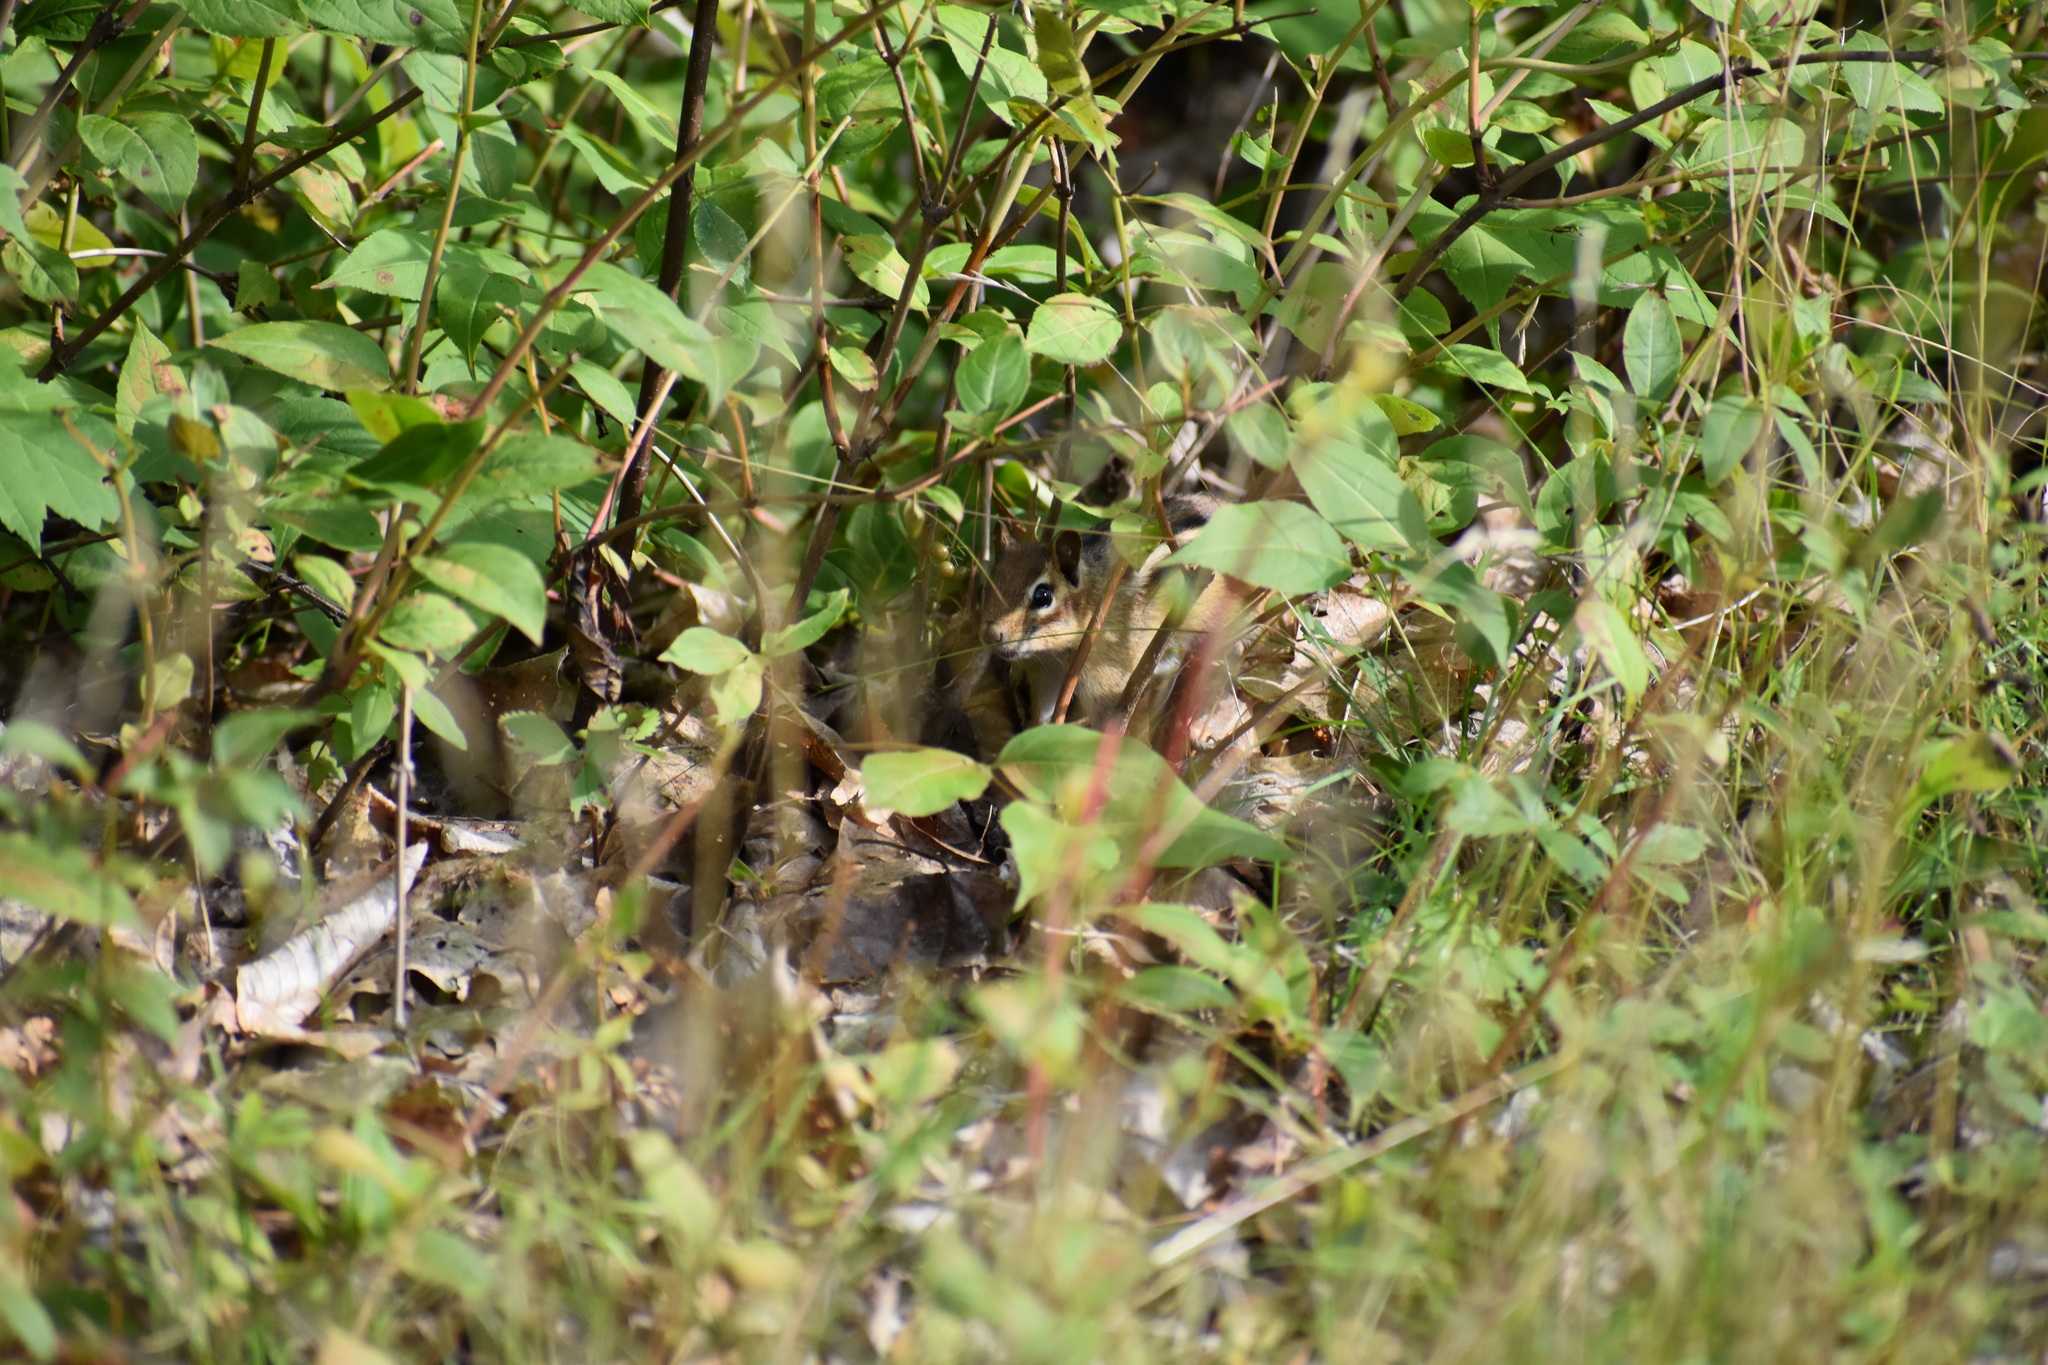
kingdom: Animalia
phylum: Chordata
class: Mammalia
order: Rodentia
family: Sciuridae
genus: Tamias
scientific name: Tamias striatus
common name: Eastern chipmunk
